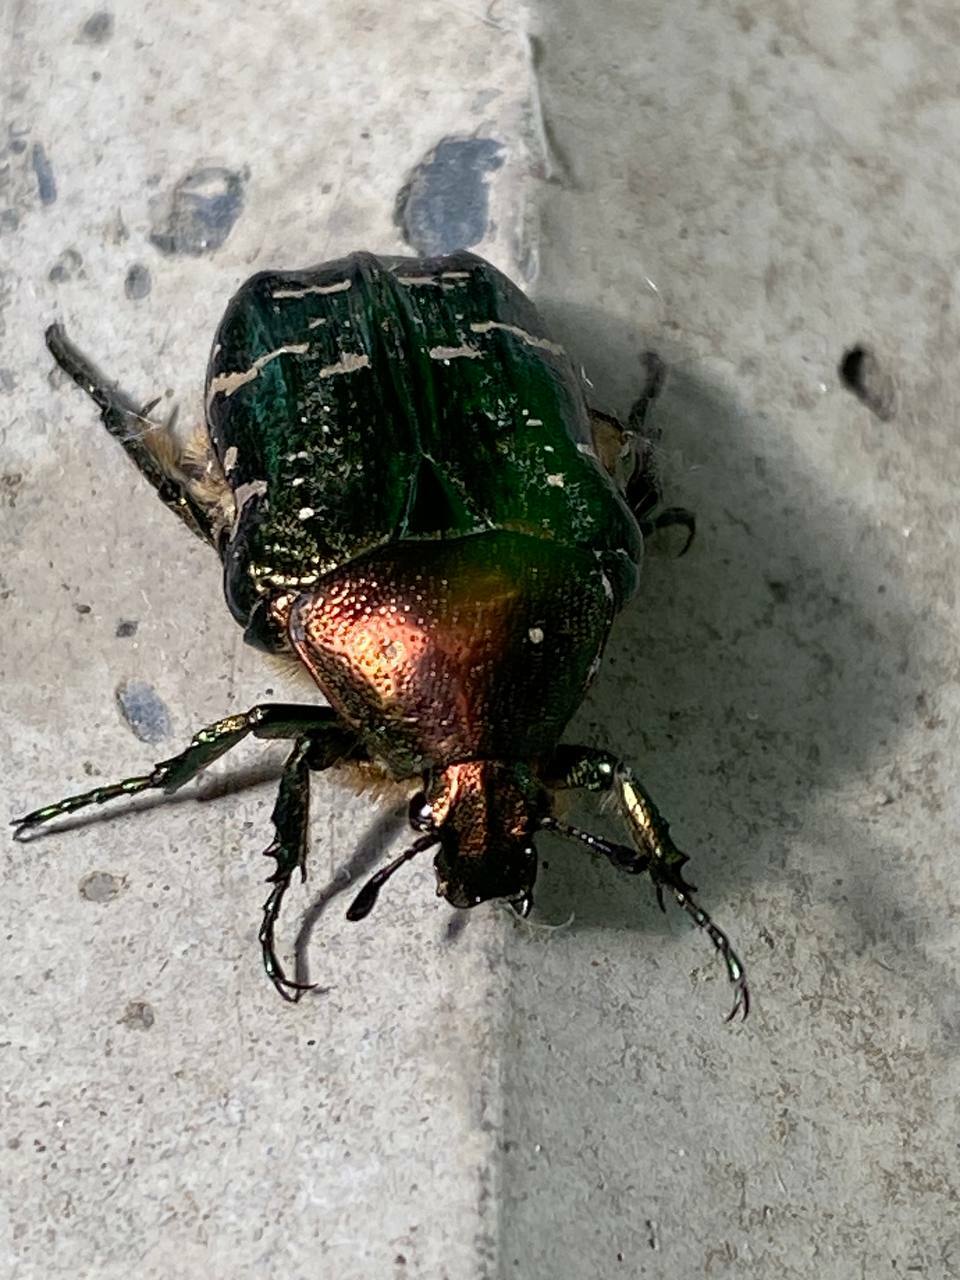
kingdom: Animalia
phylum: Arthropoda
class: Insecta
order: Coleoptera
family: Scarabaeidae
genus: Cetonia
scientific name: Cetonia aurata
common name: Rose chafer
